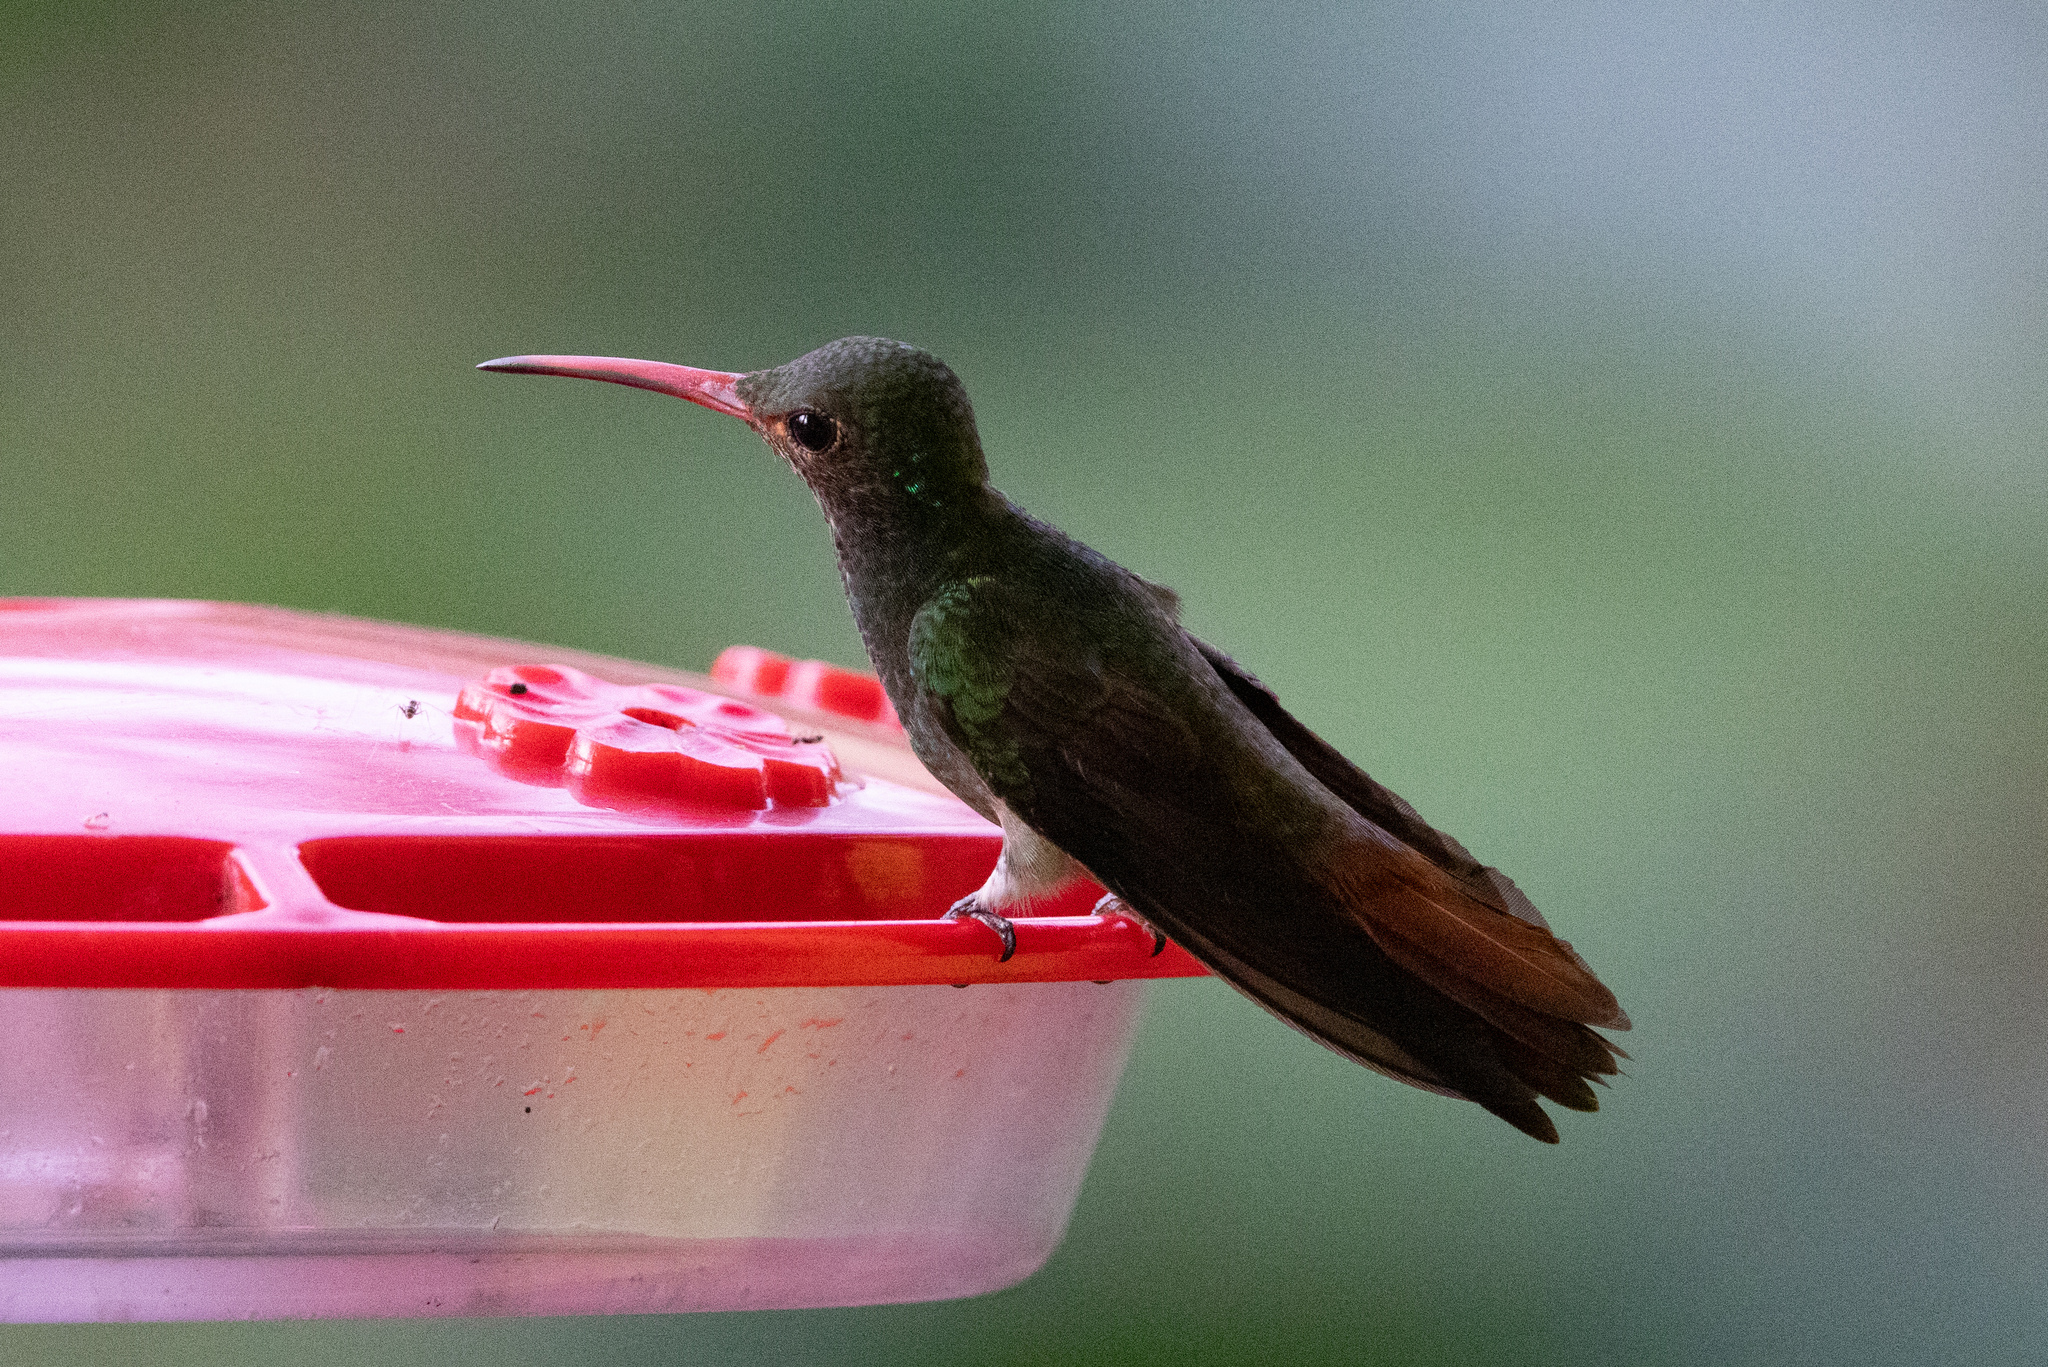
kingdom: Animalia
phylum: Chordata
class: Aves
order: Apodiformes
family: Trochilidae
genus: Amazilia
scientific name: Amazilia tzacatl
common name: Rufous-tailed hummingbird
